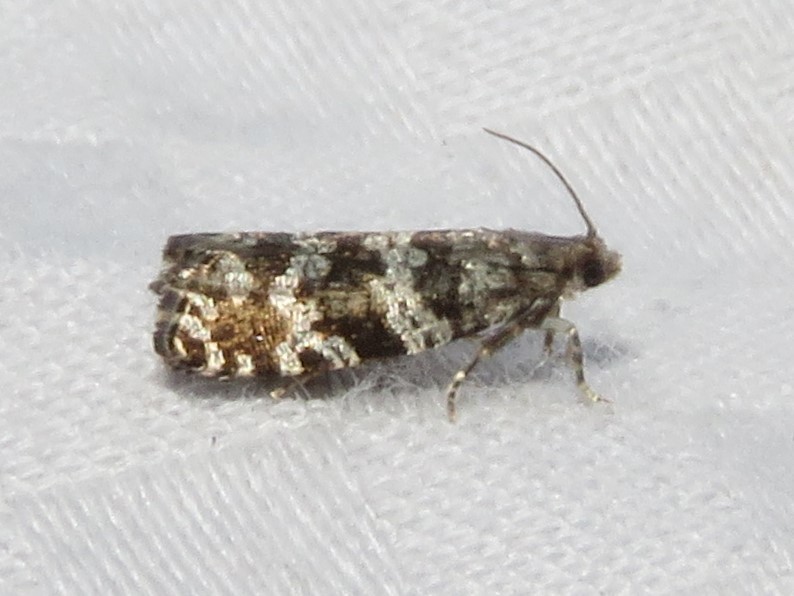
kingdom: Animalia
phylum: Arthropoda
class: Insecta
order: Lepidoptera
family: Tortricidae
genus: Taniva
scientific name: Taniva albolineana
